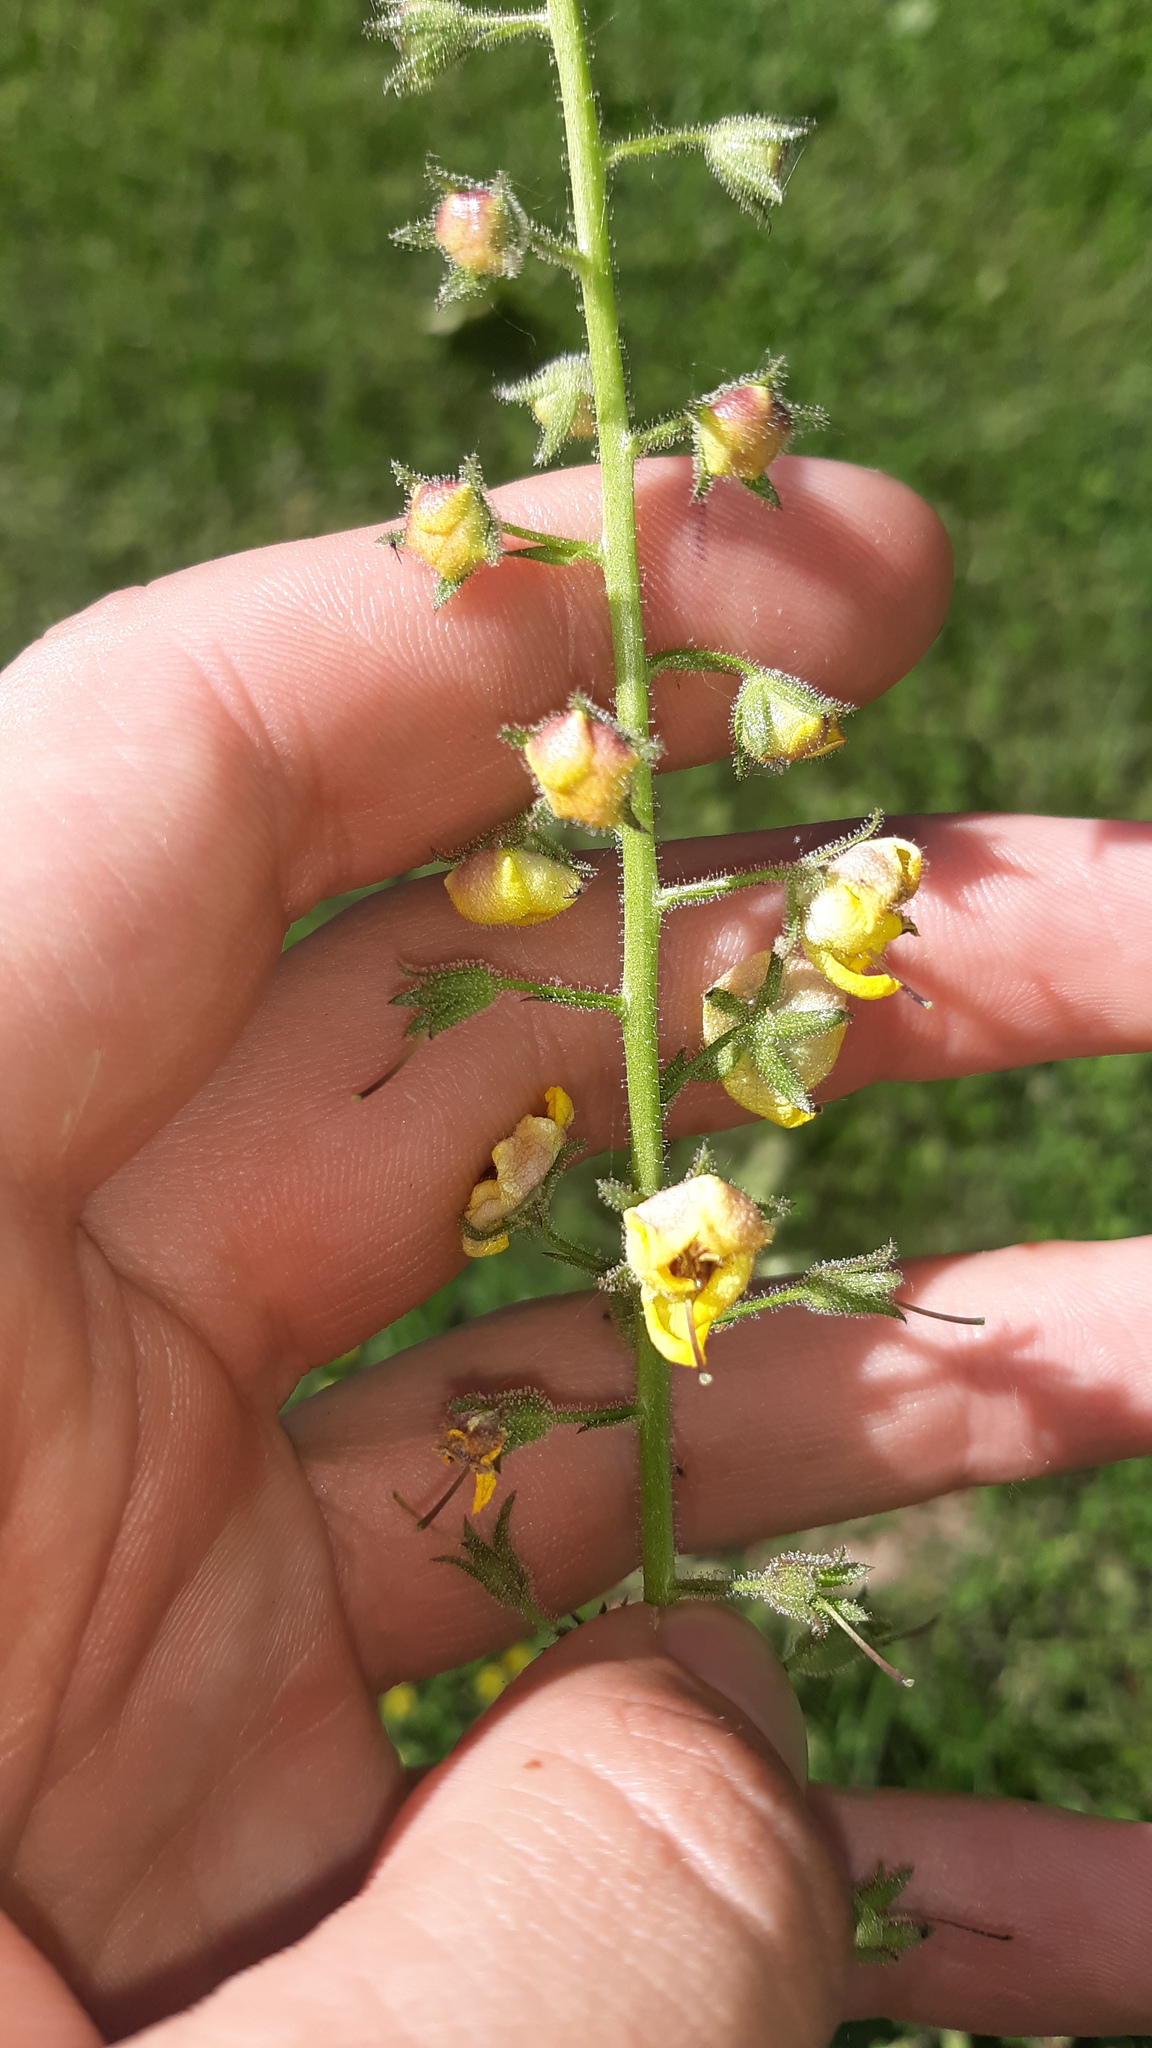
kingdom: Plantae
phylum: Tracheophyta
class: Magnoliopsida
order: Lamiales
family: Scrophulariaceae
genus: Verbascum
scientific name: Verbascum blattaria
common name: Moth mullein
